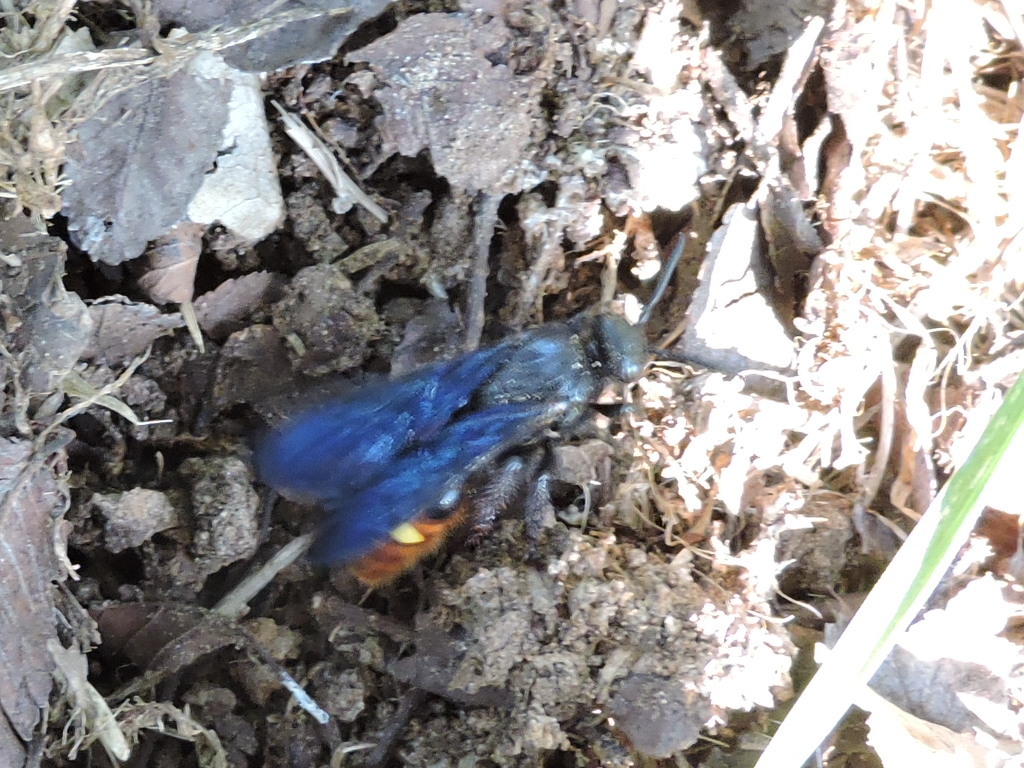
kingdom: Animalia
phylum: Arthropoda
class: Insecta
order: Hymenoptera
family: Scoliidae
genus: Scolia
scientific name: Scolia dubia
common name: Blue-winged scoliid wasp
